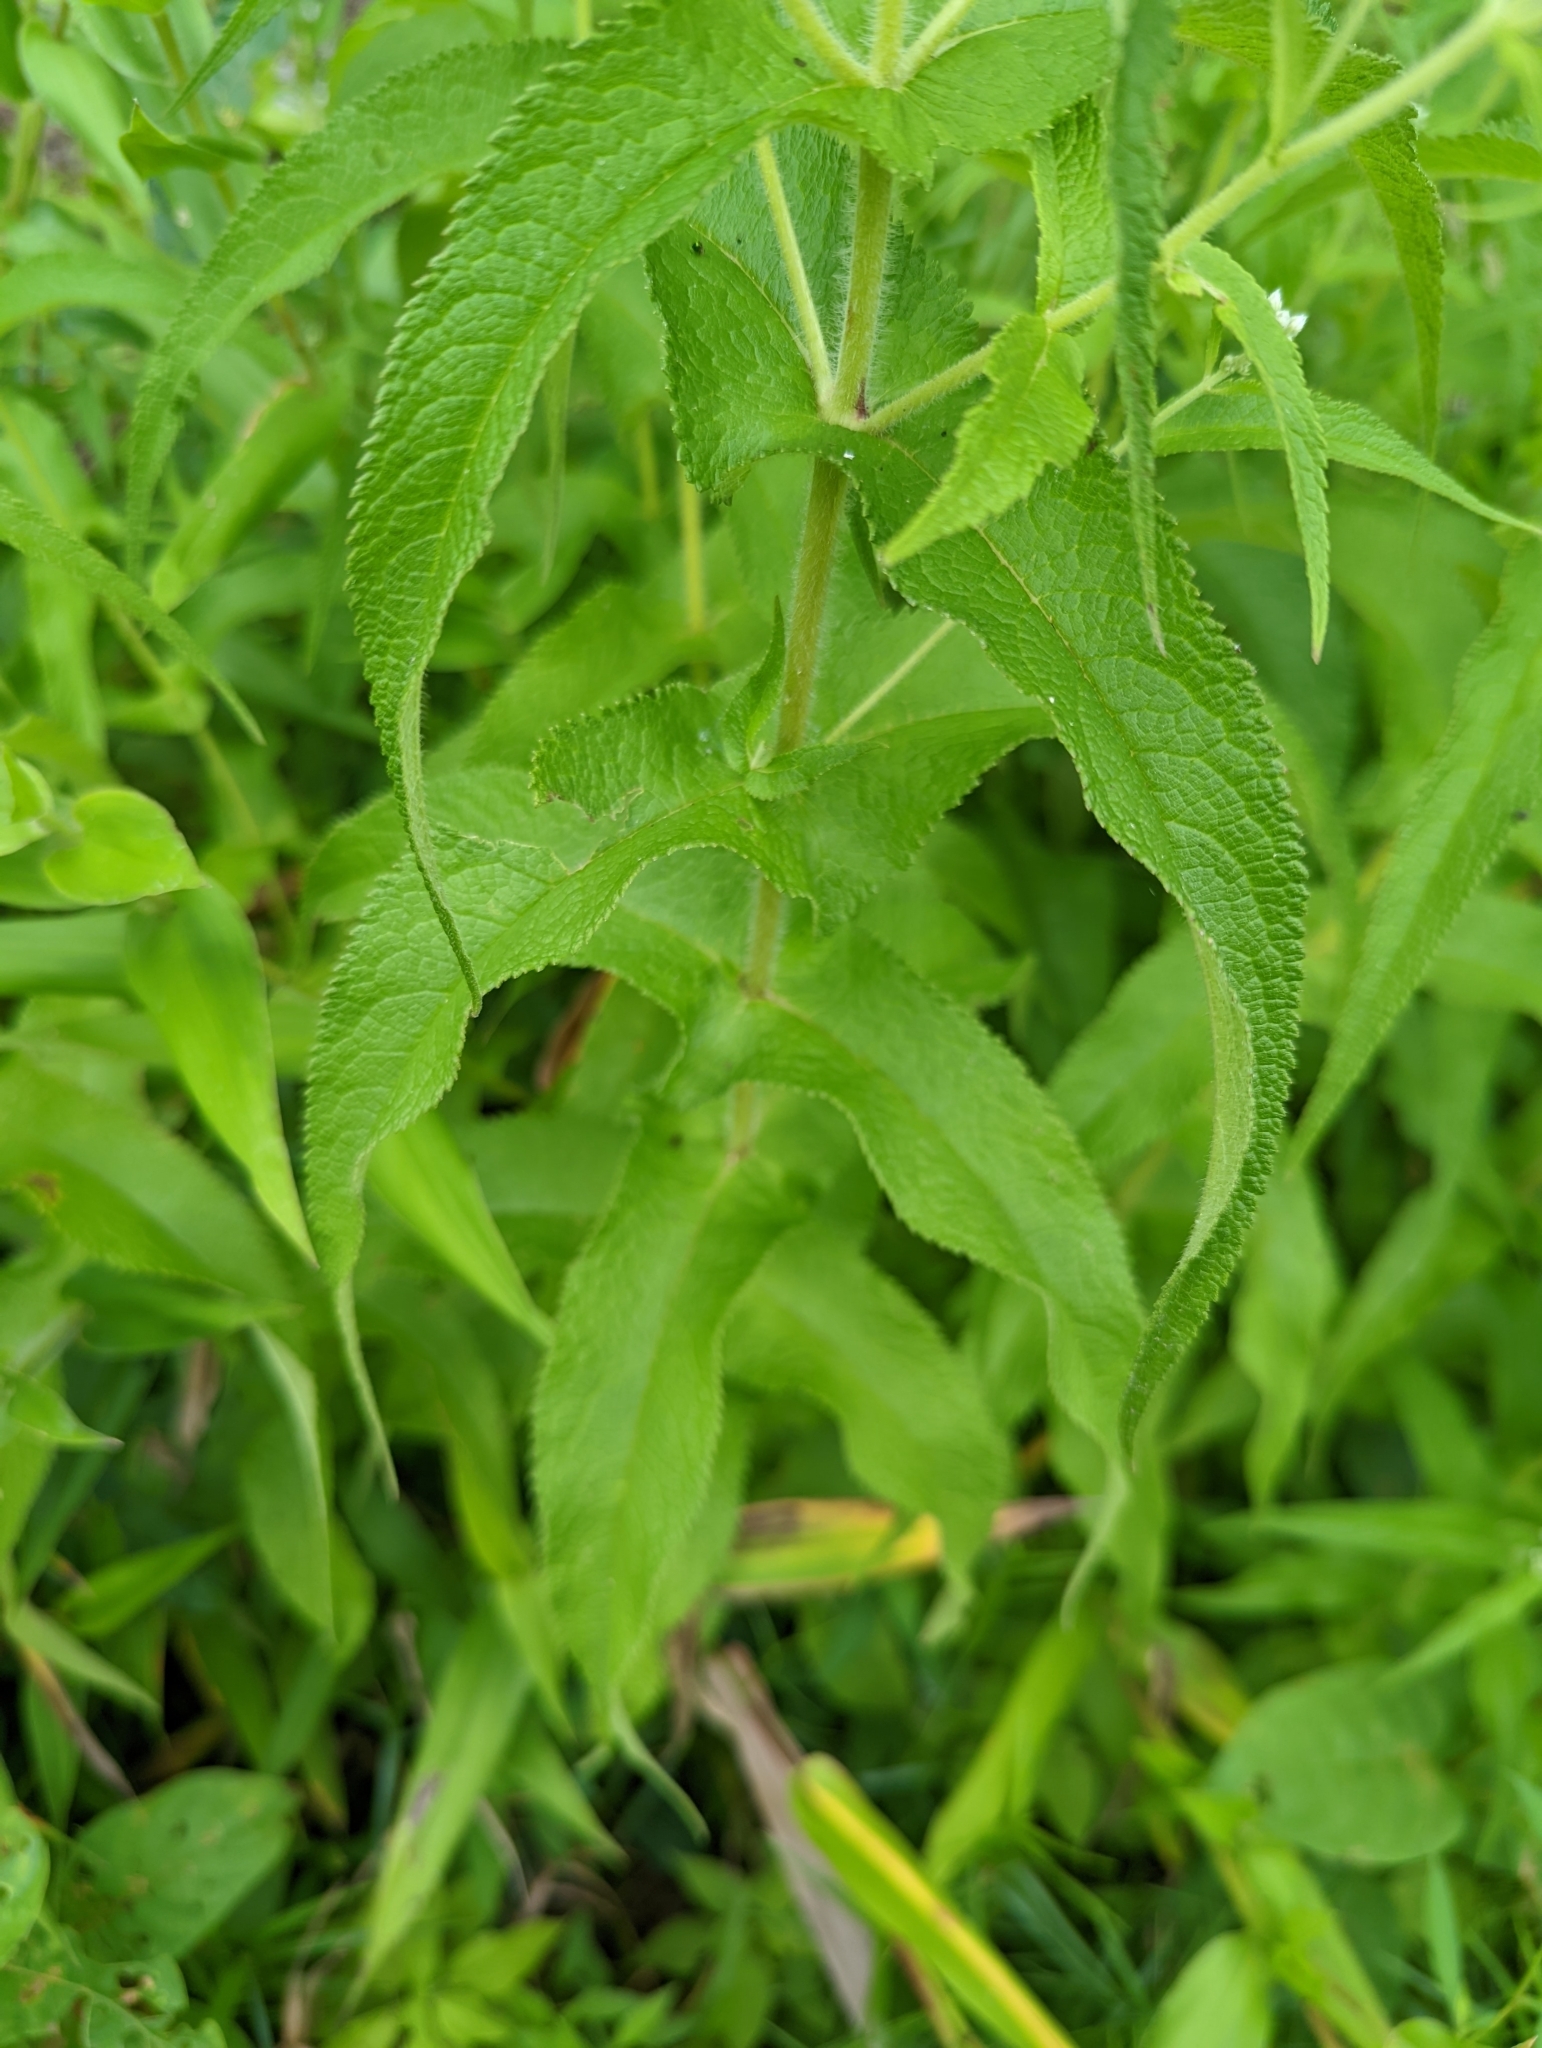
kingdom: Plantae
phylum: Tracheophyta
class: Magnoliopsida
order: Asterales
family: Asteraceae
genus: Eupatorium
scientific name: Eupatorium perfoliatum
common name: Boneset
